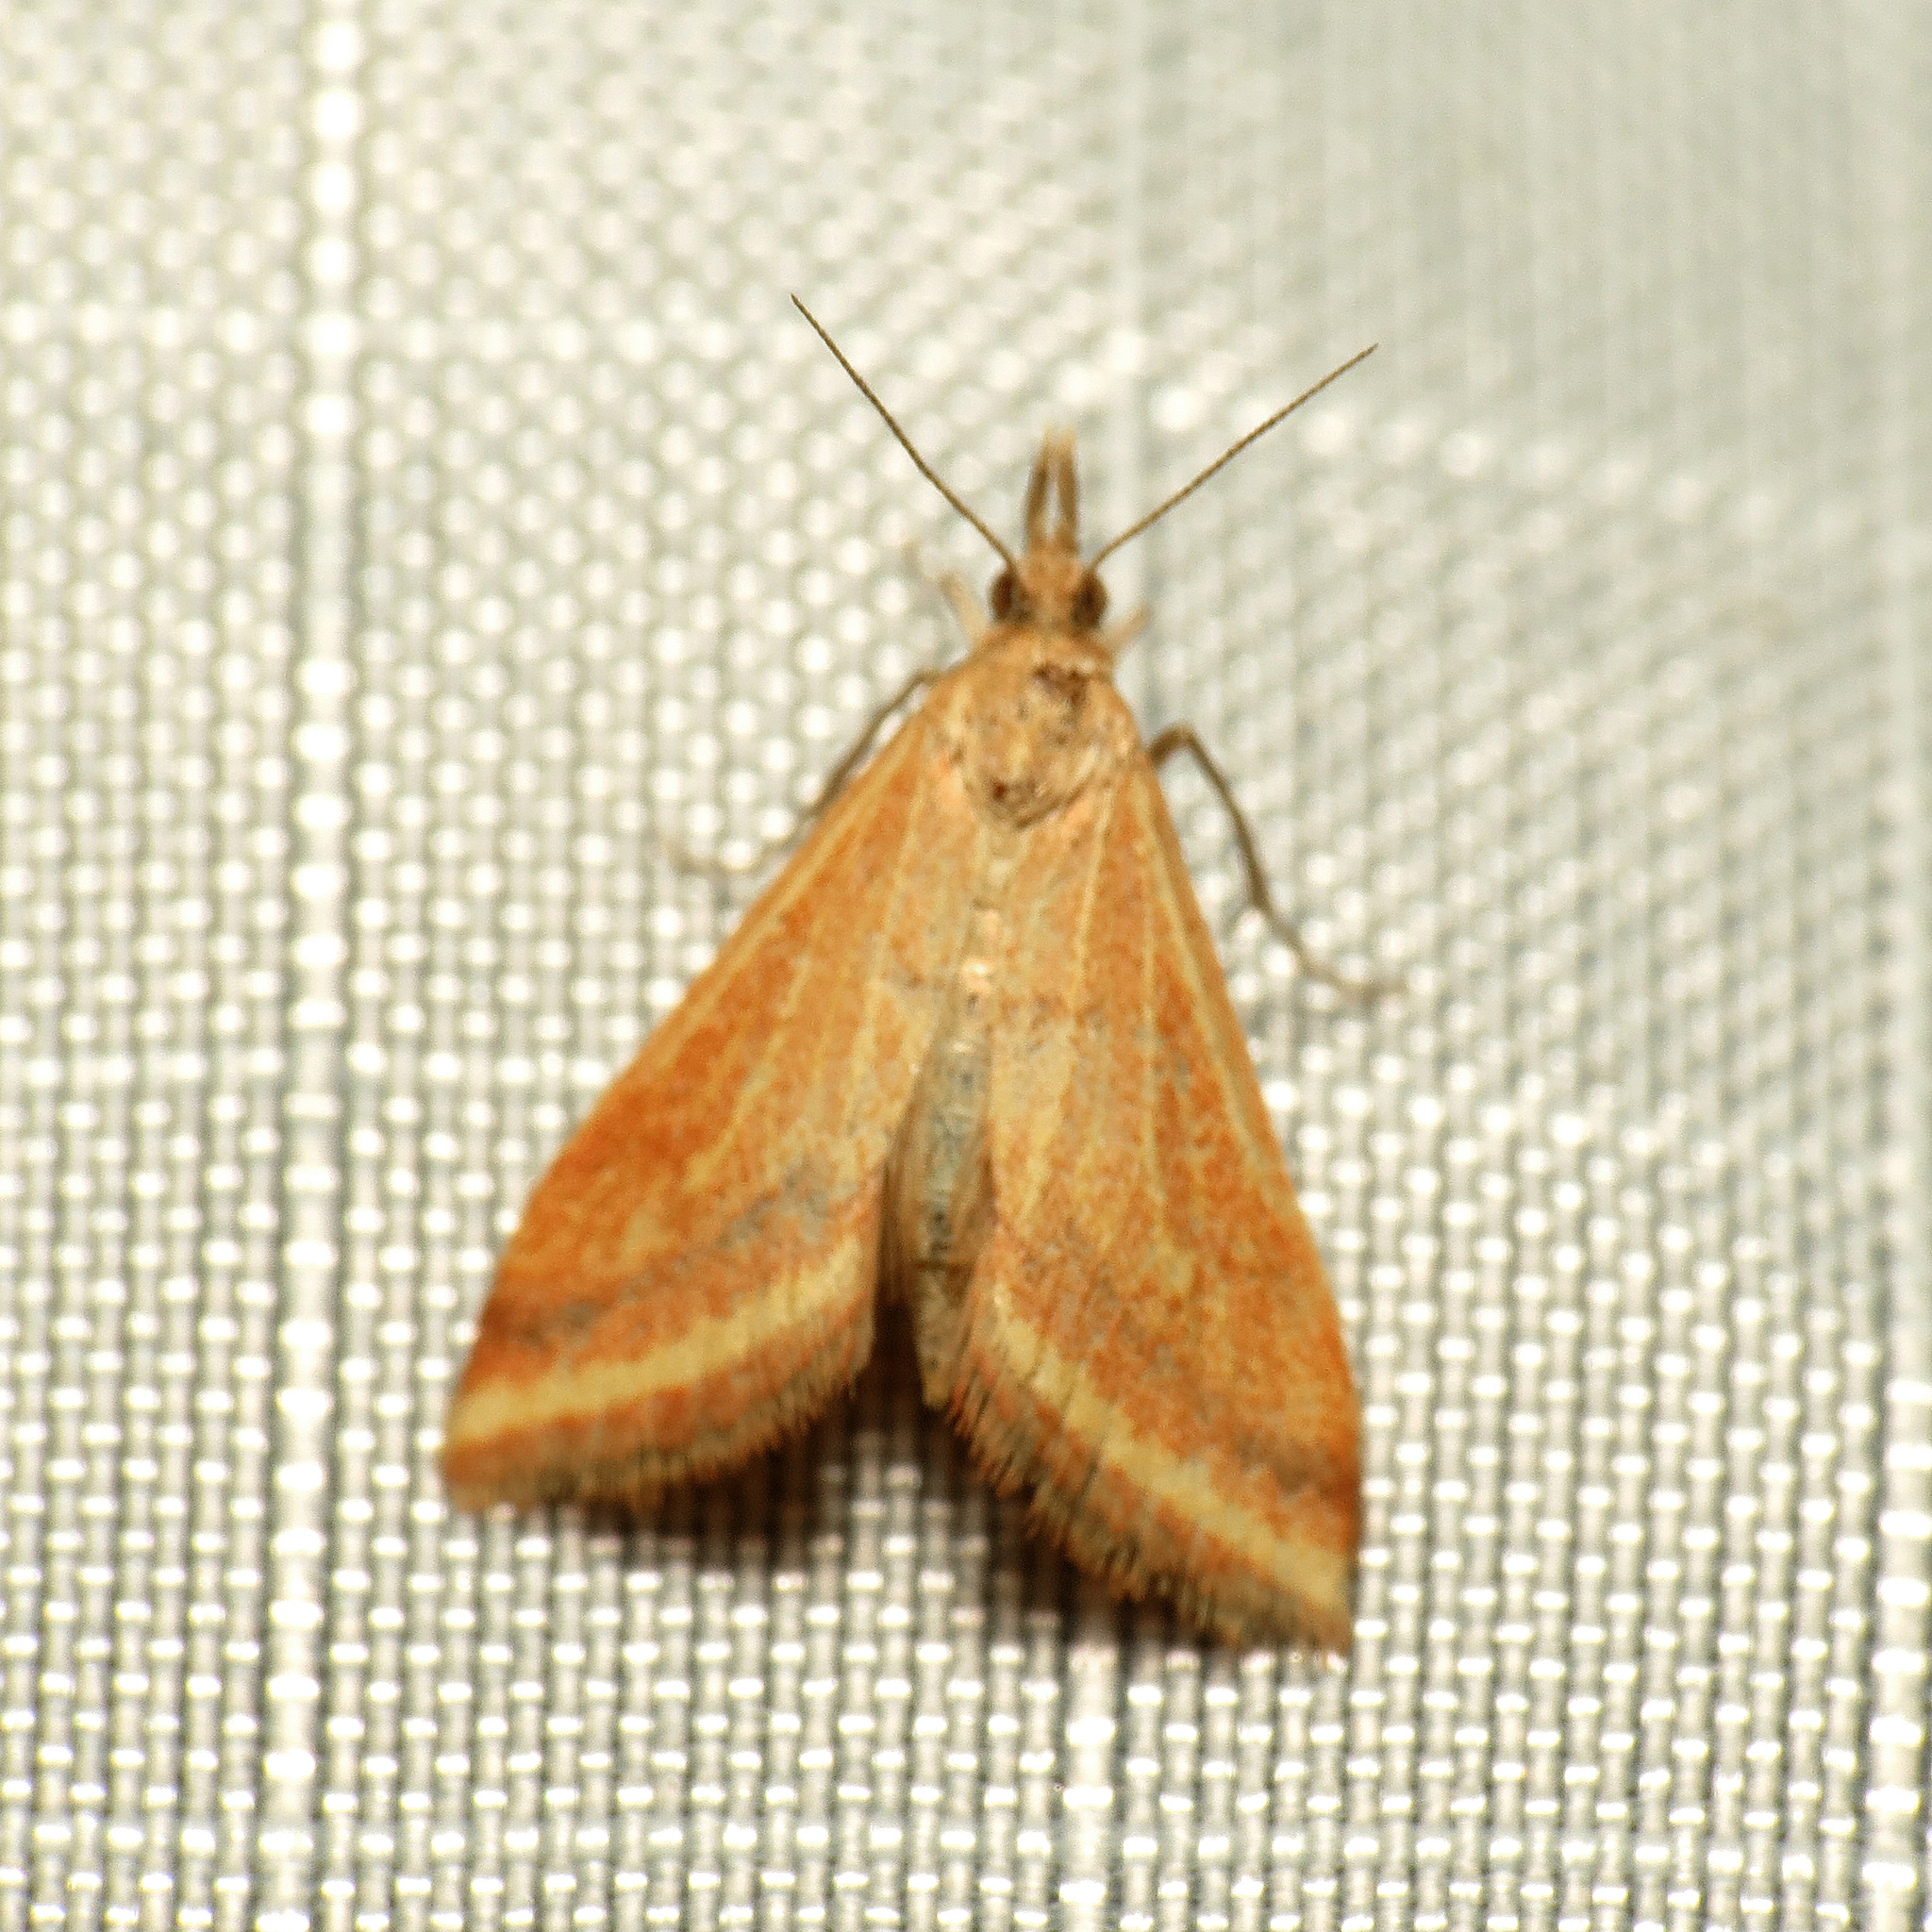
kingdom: Animalia
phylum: Arthropoda
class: Insecta
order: Lepidoptera
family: Crambidae
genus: Microtheoris
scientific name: Microtheoris ophionalis
